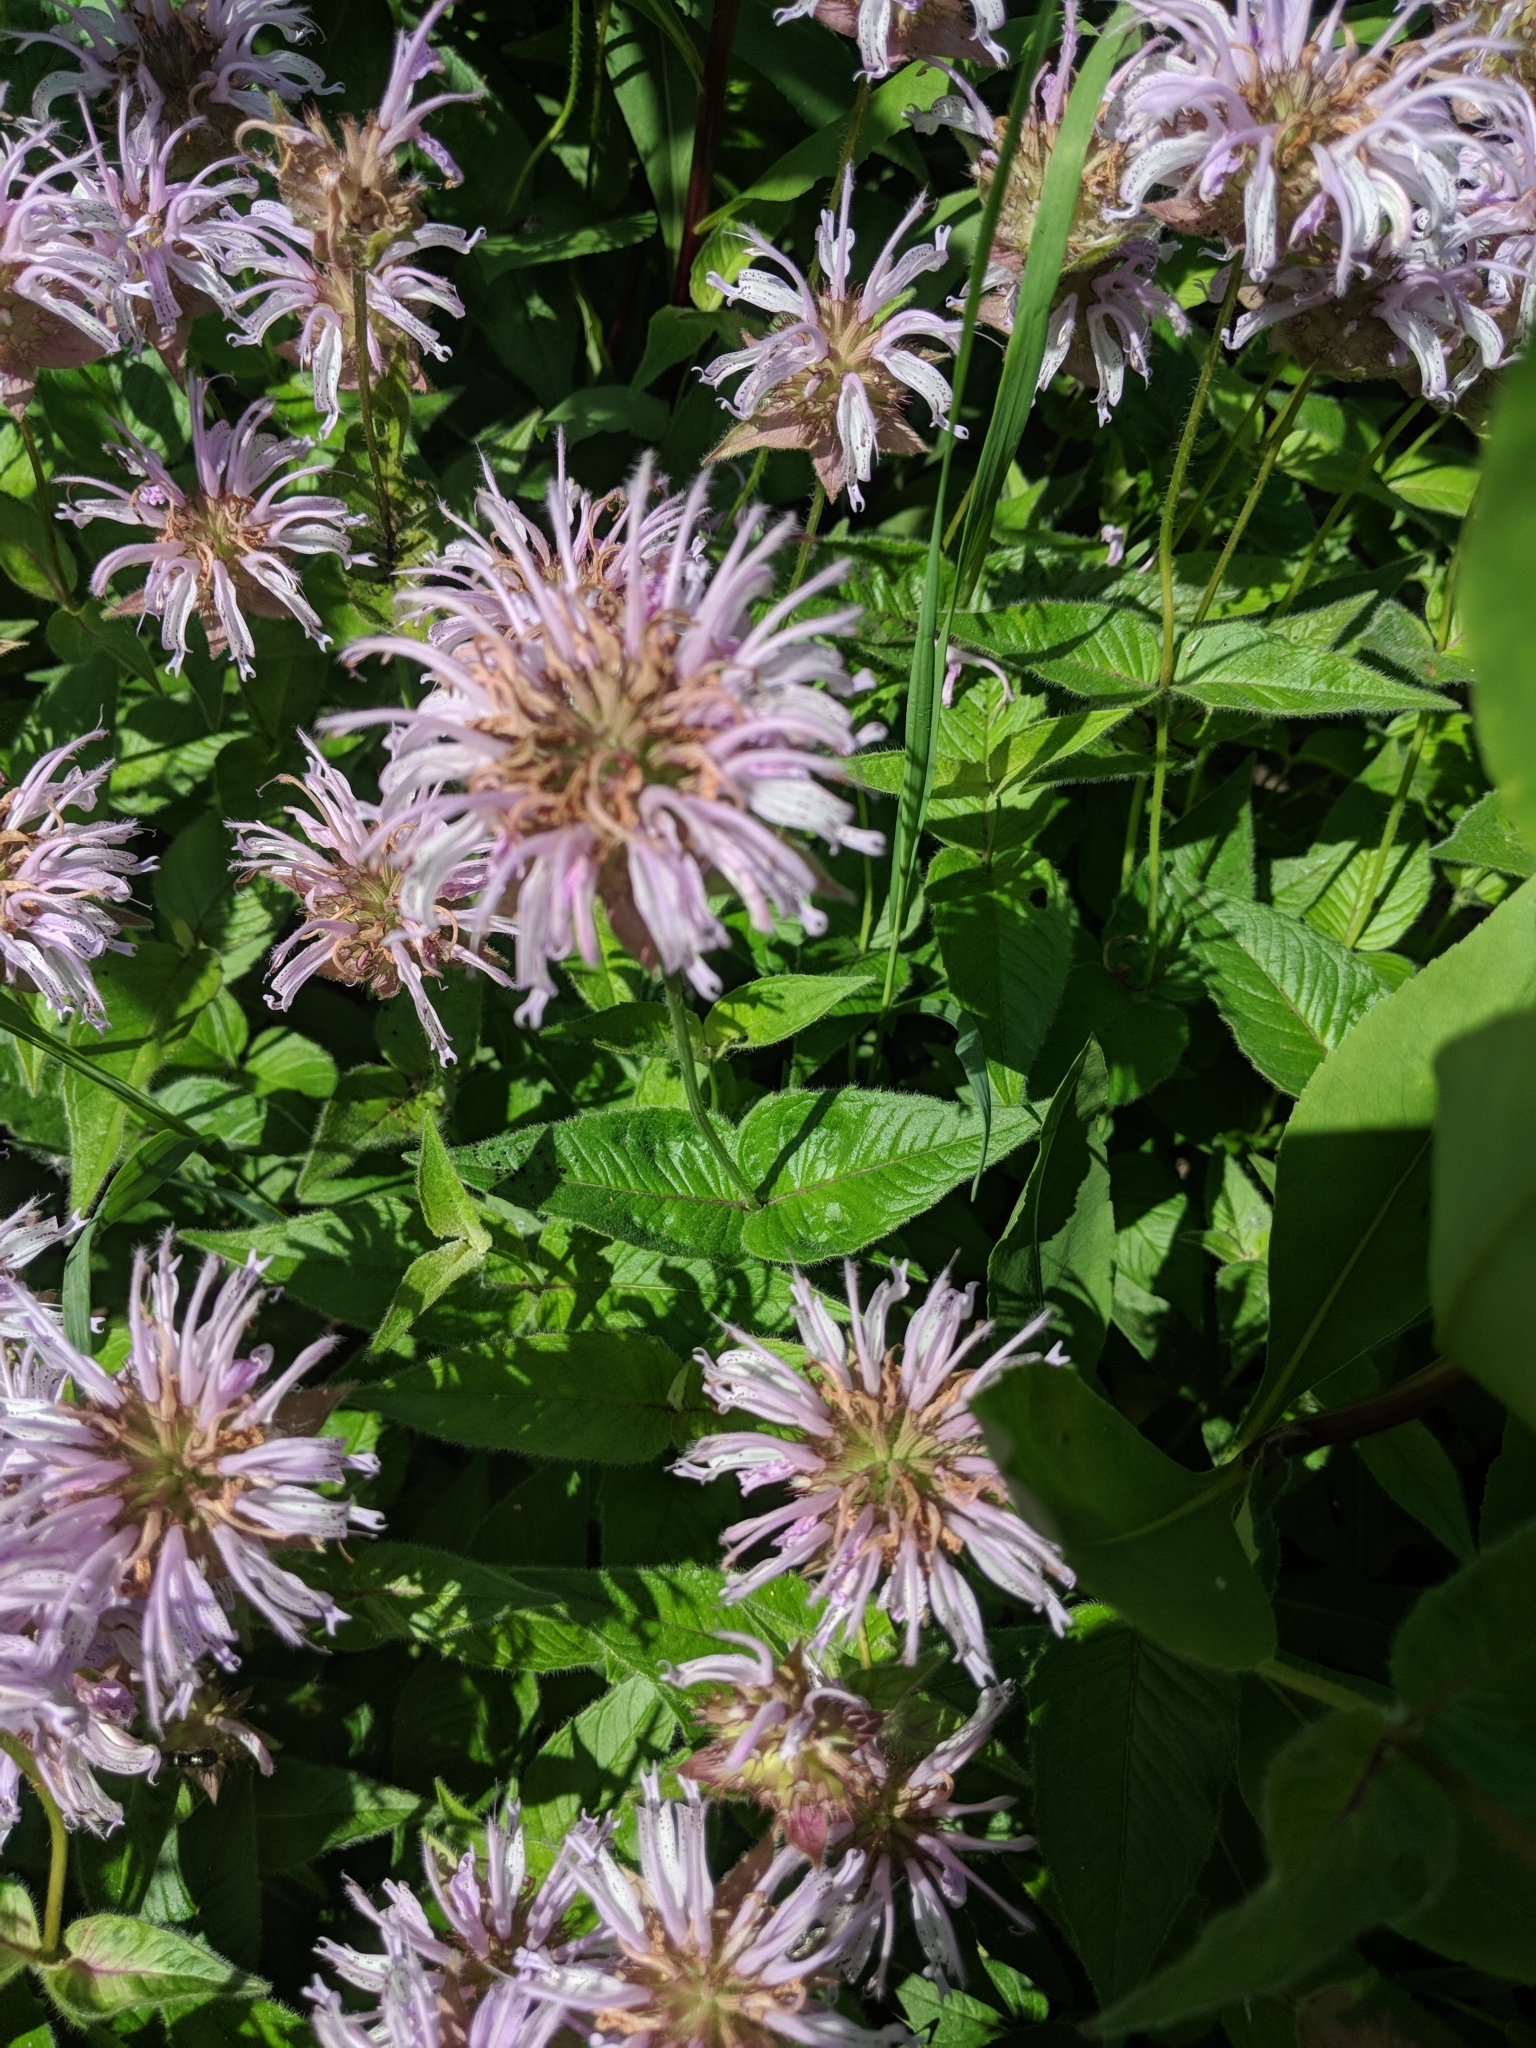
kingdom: Plantae
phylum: Tracheophyta
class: Magnoliopsida
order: Lamiales
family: Lamiaceae
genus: Monarda
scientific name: Monarda bradburiana
